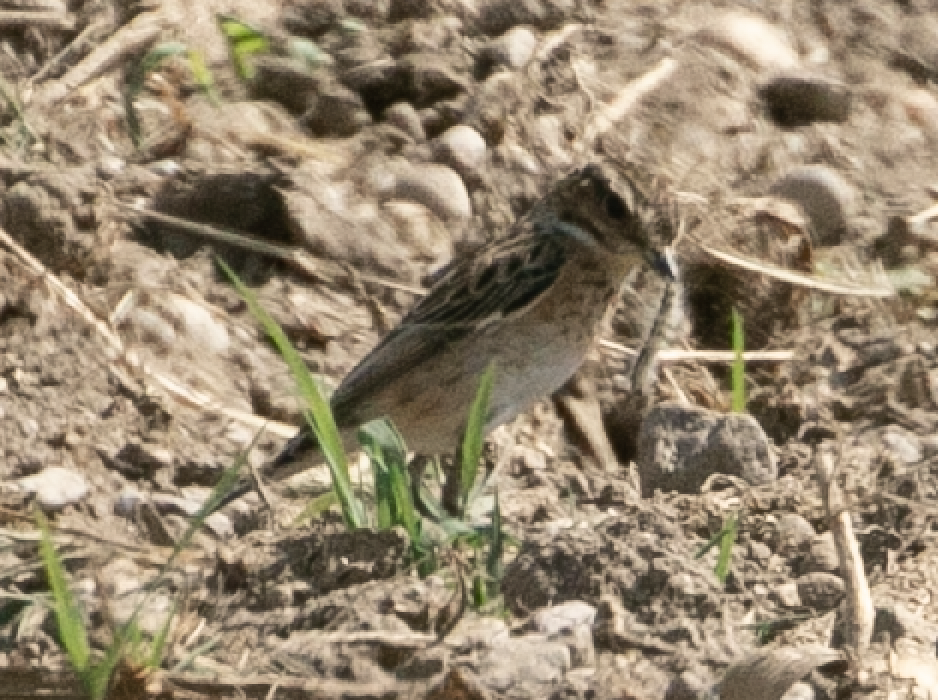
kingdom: Animalia
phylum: Chordata
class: Aves
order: Passeriformes
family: Muscicapidae
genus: Saxicola
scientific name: Saxicola rubetra
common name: Whinchat
